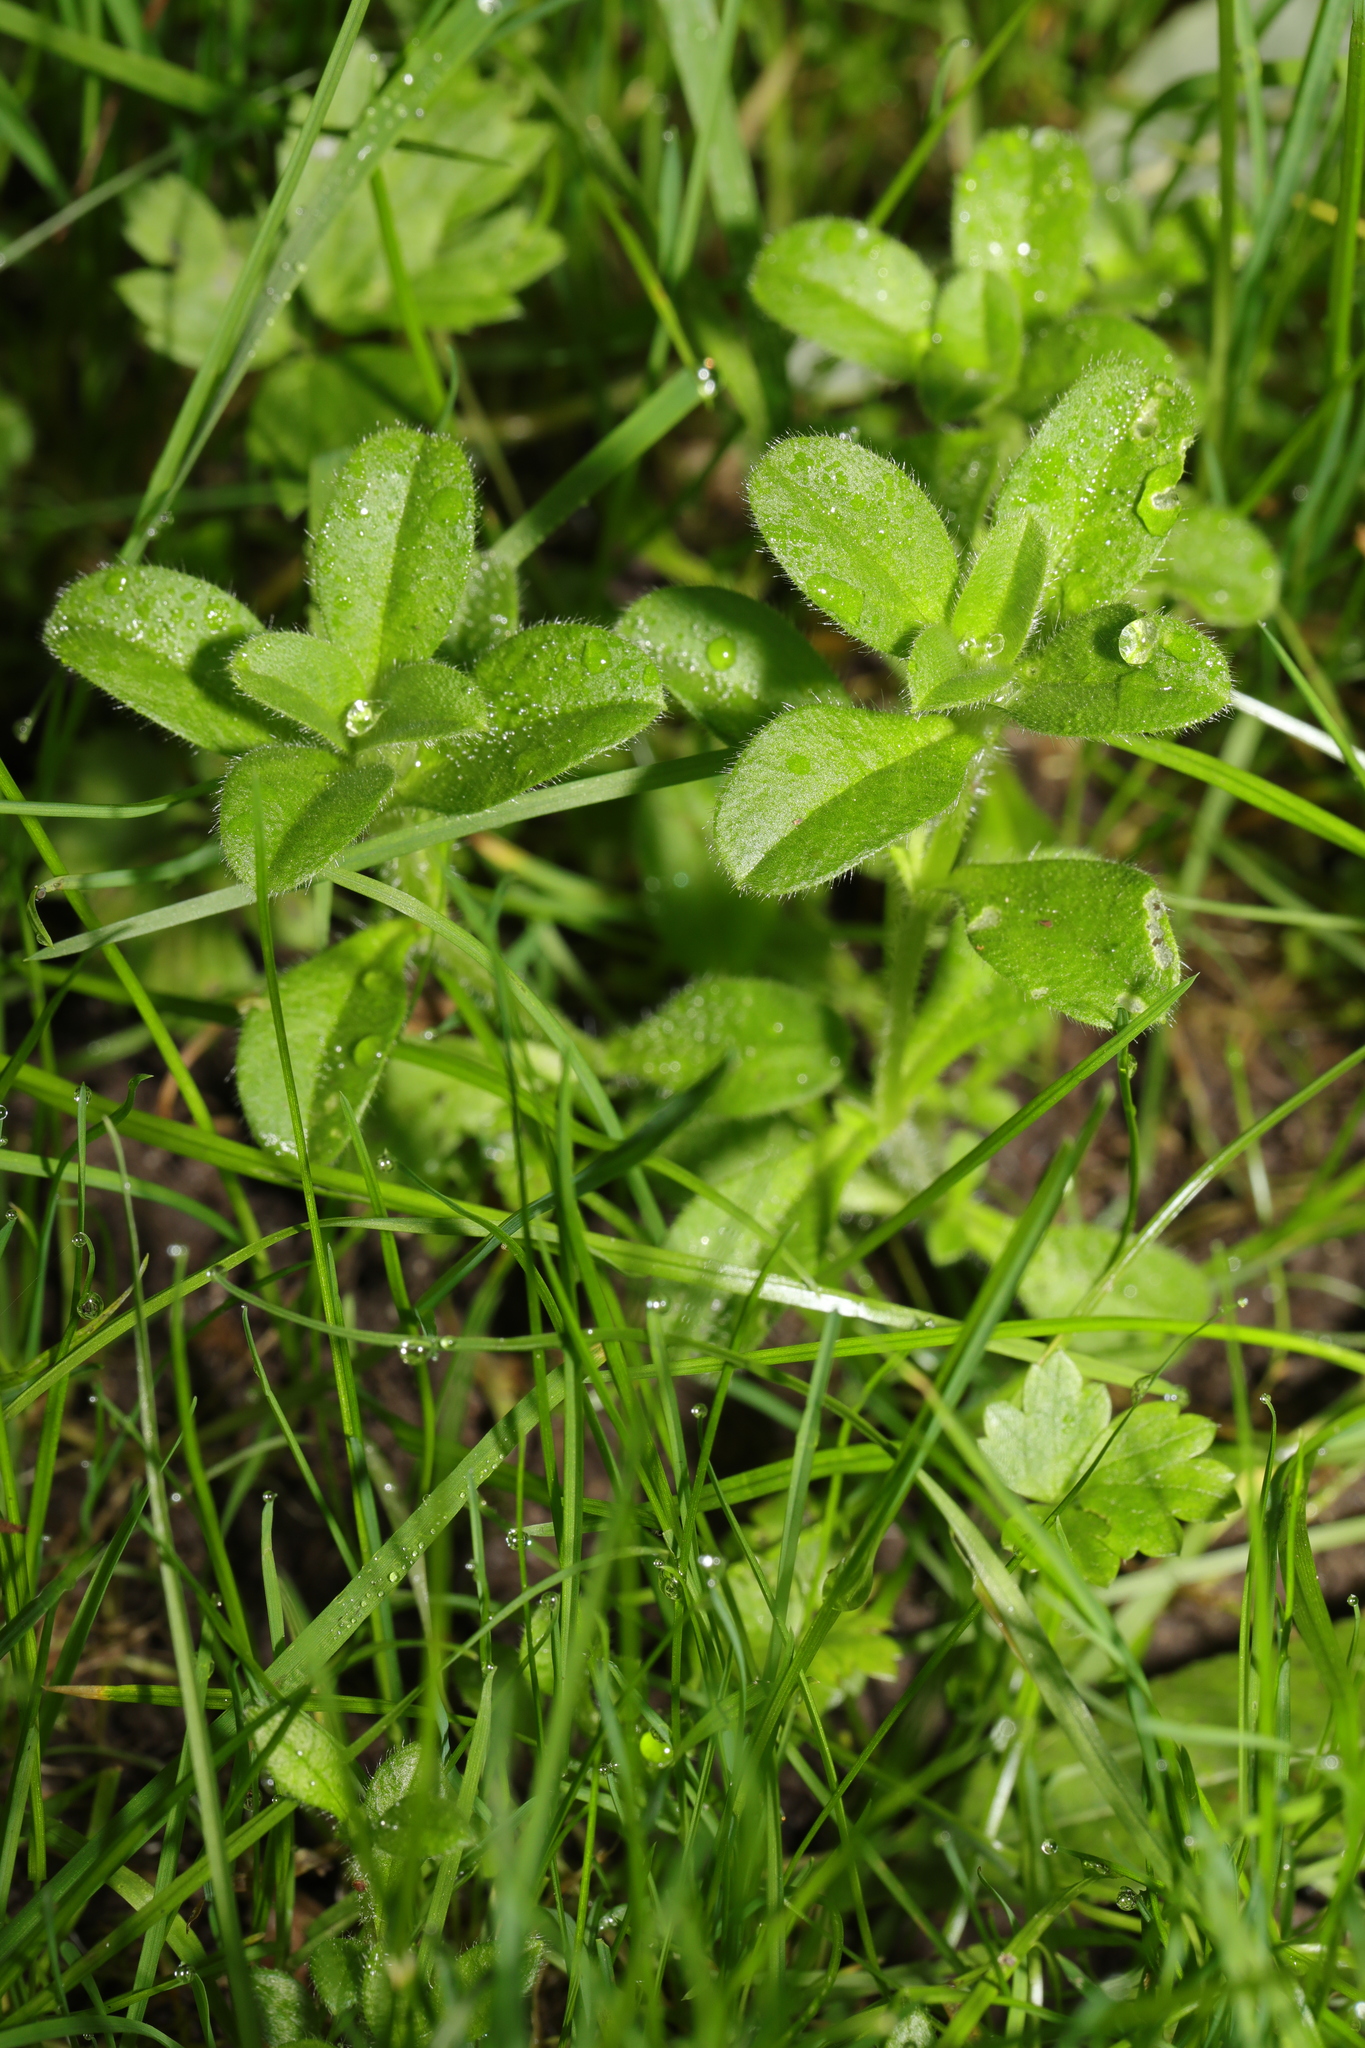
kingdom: Plantae
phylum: Tracheophyta
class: Magnoliopsida
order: Caryophyllales
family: Caryophyllaceae
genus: Cerastium
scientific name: Cerastium glomeratum
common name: Sticky chickweed
